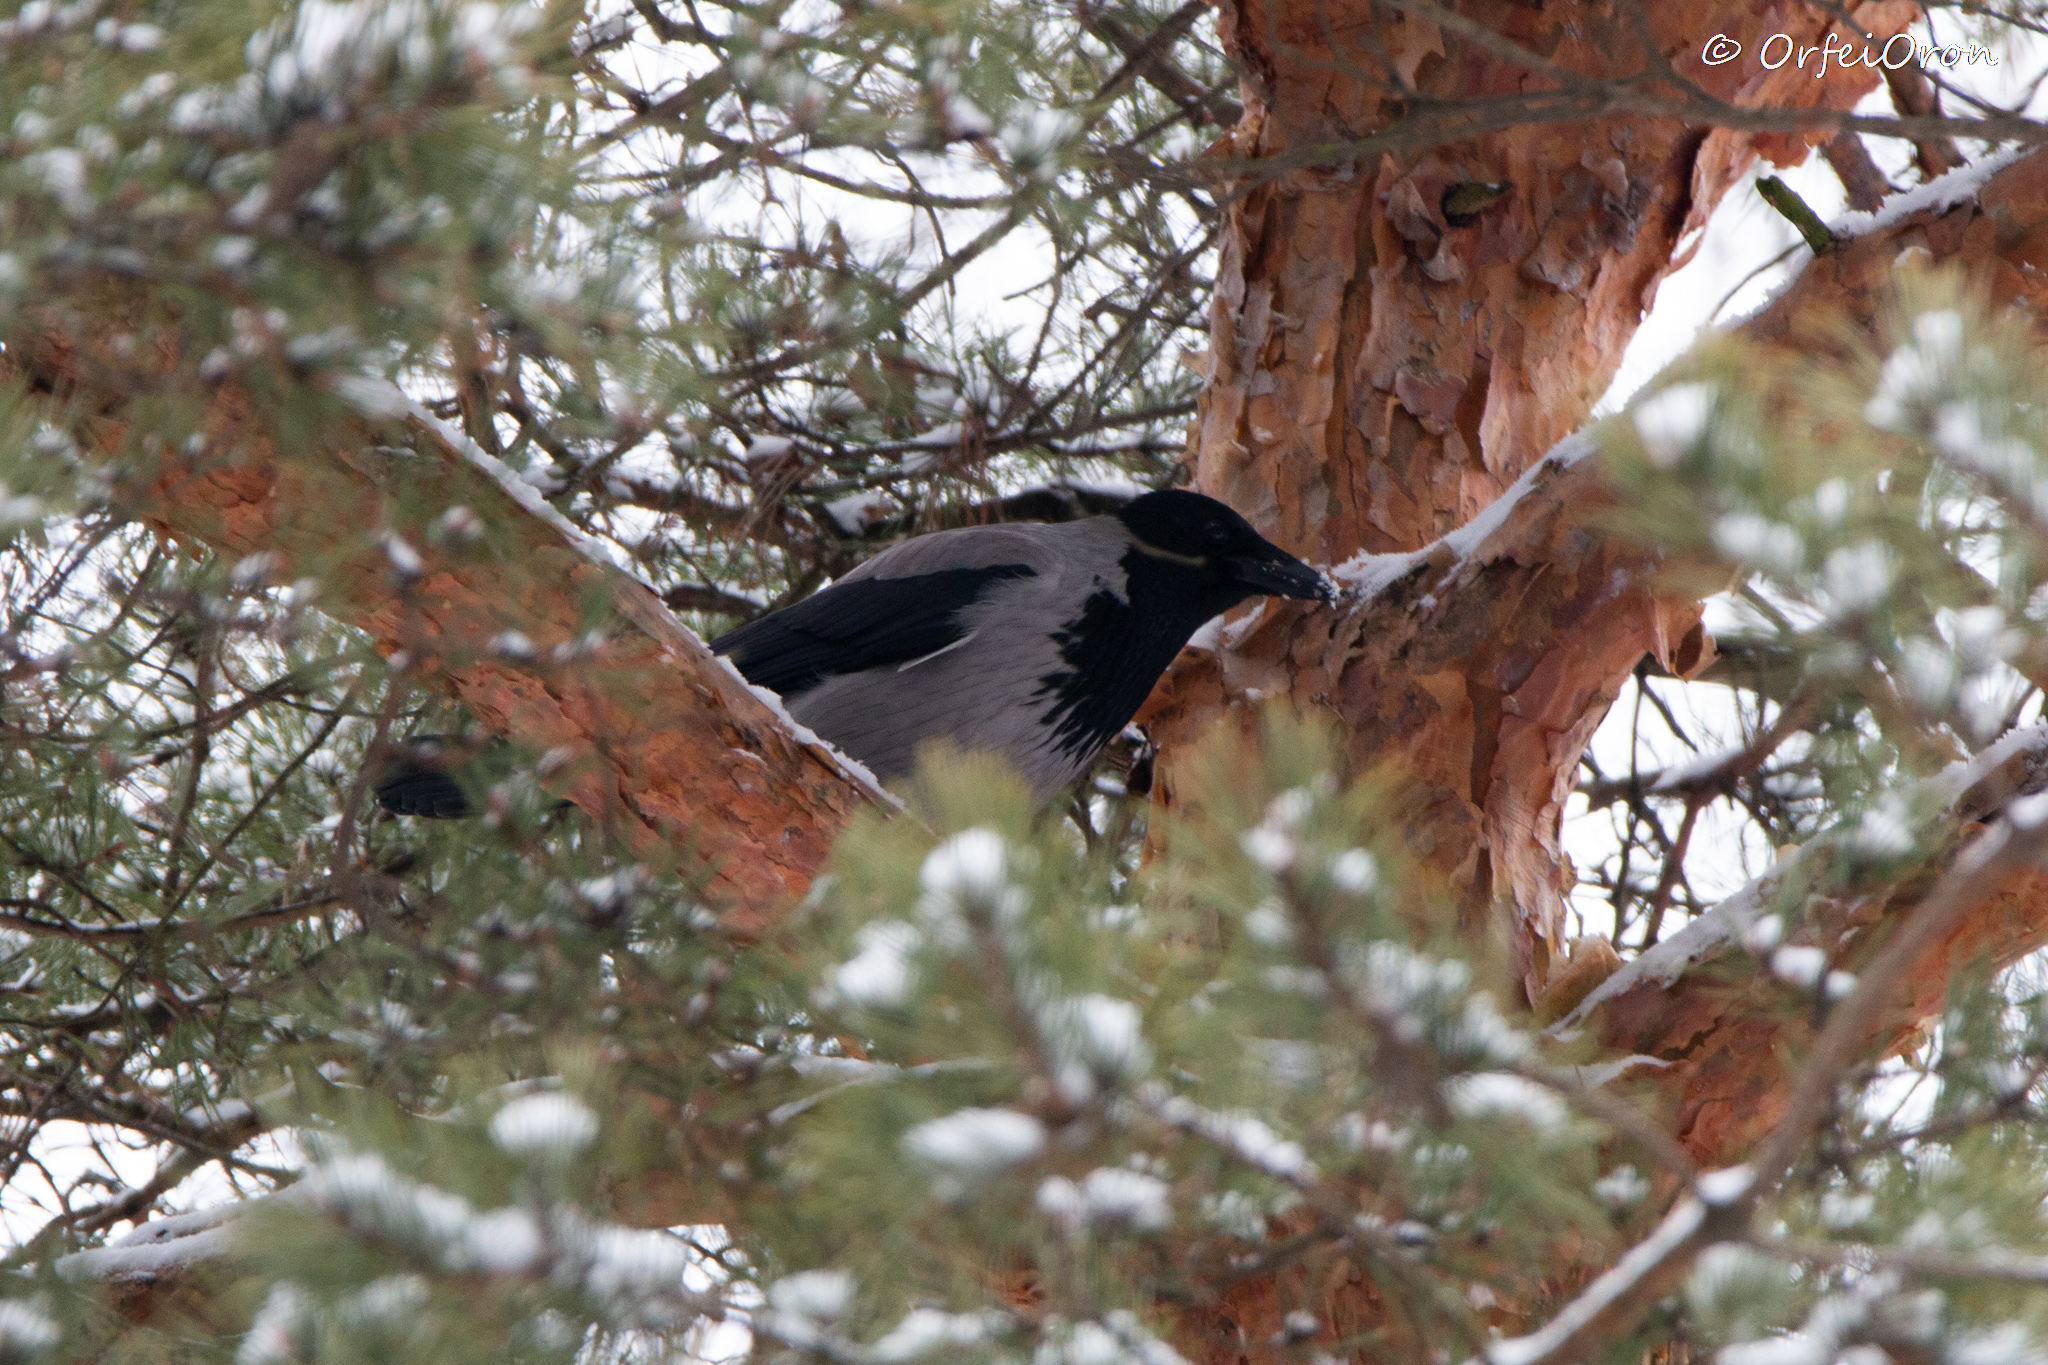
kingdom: Animalia
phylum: Chordata
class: Aves
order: Passeriformes
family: Corvidae
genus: Corvus
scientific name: Corvus cornix
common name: Hooded crow
